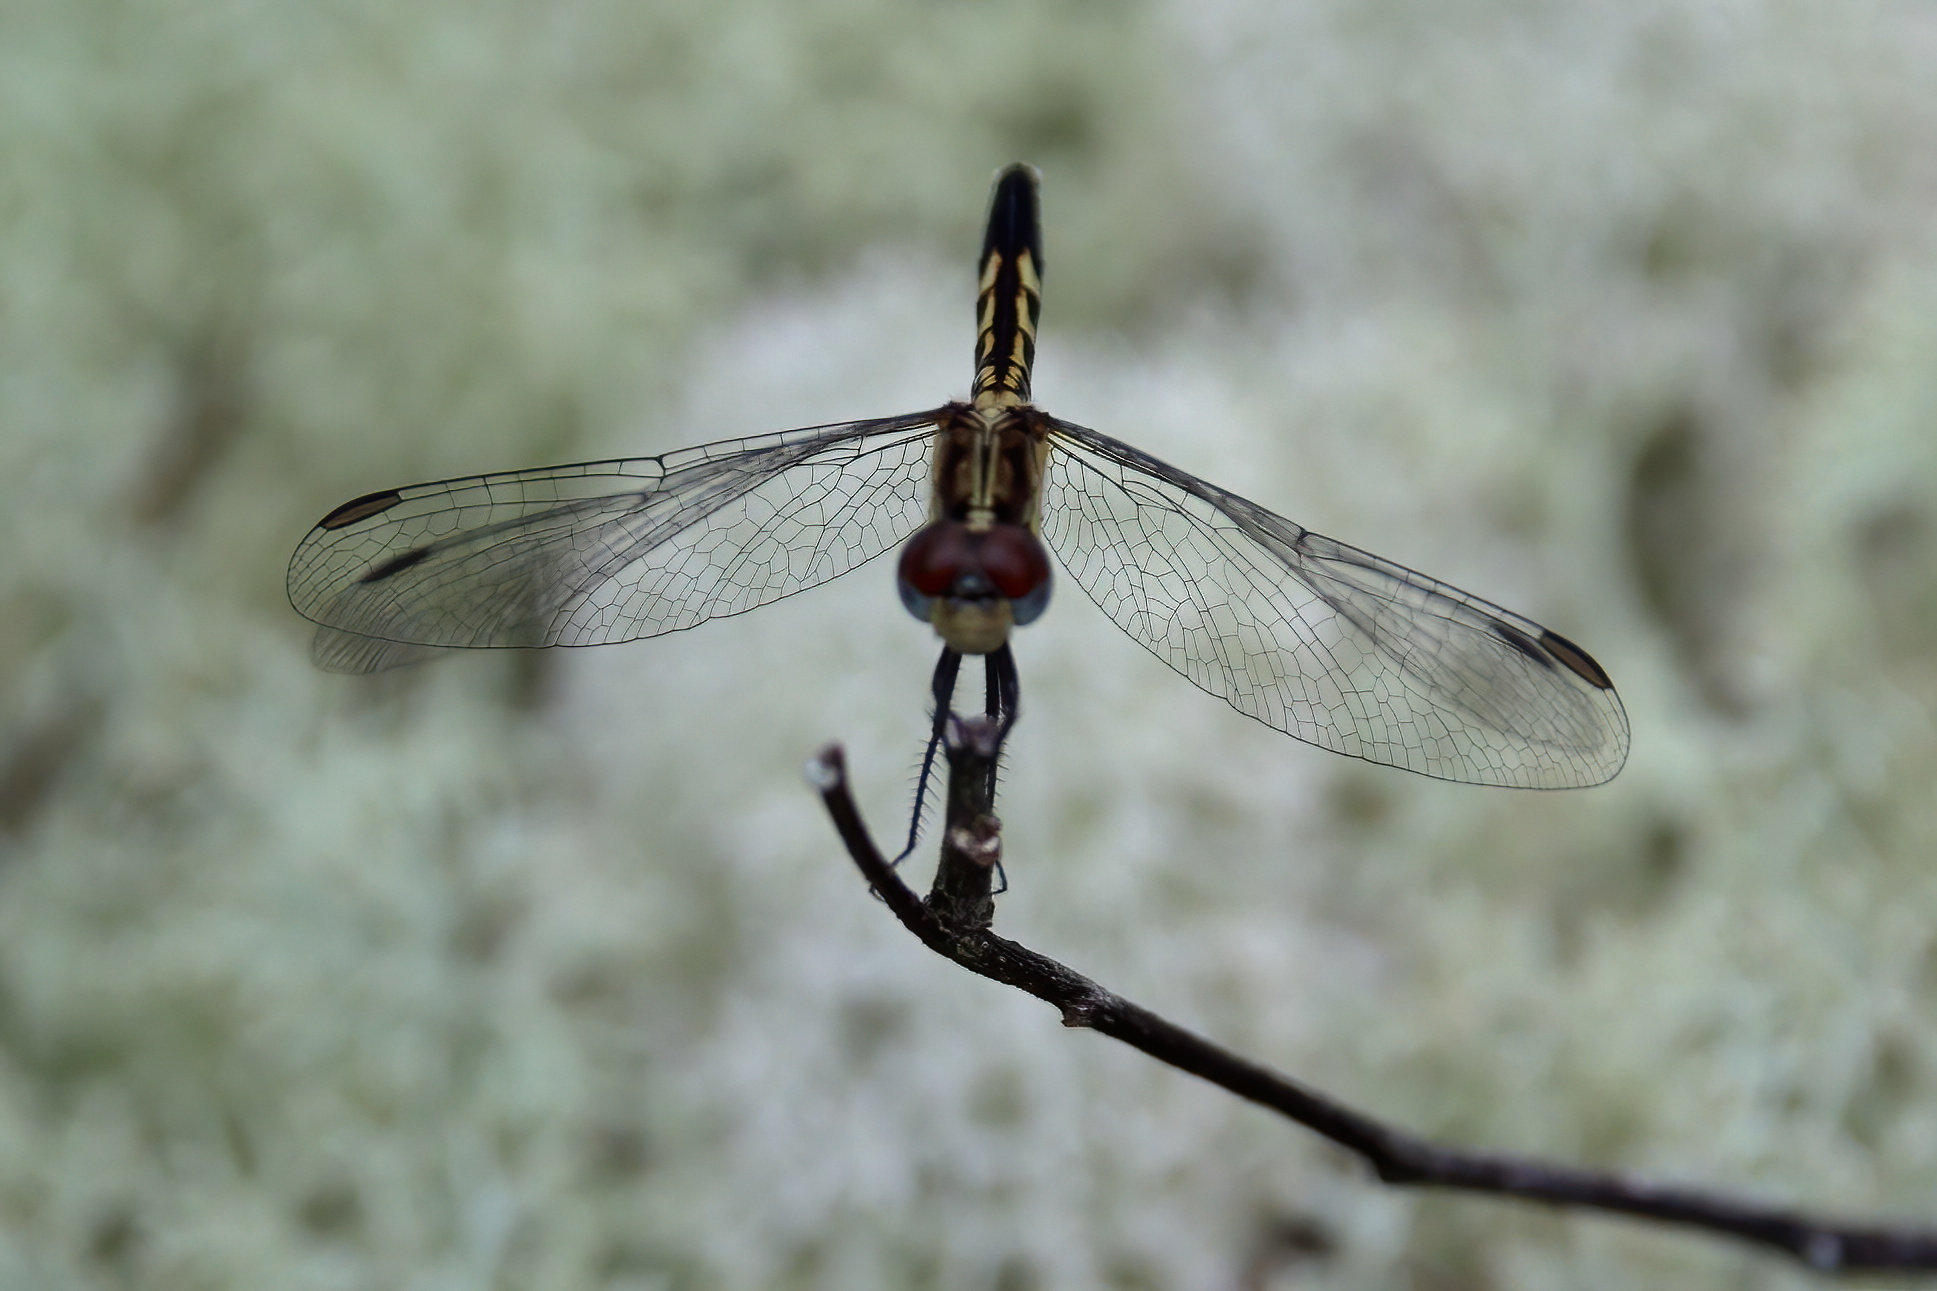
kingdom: Animalia
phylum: Arthropoda
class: Insecta
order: Odonata
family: Libellulidae
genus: Erythrodiplax
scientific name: Erythrodiplax minuscula
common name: Little blue dragonlet
